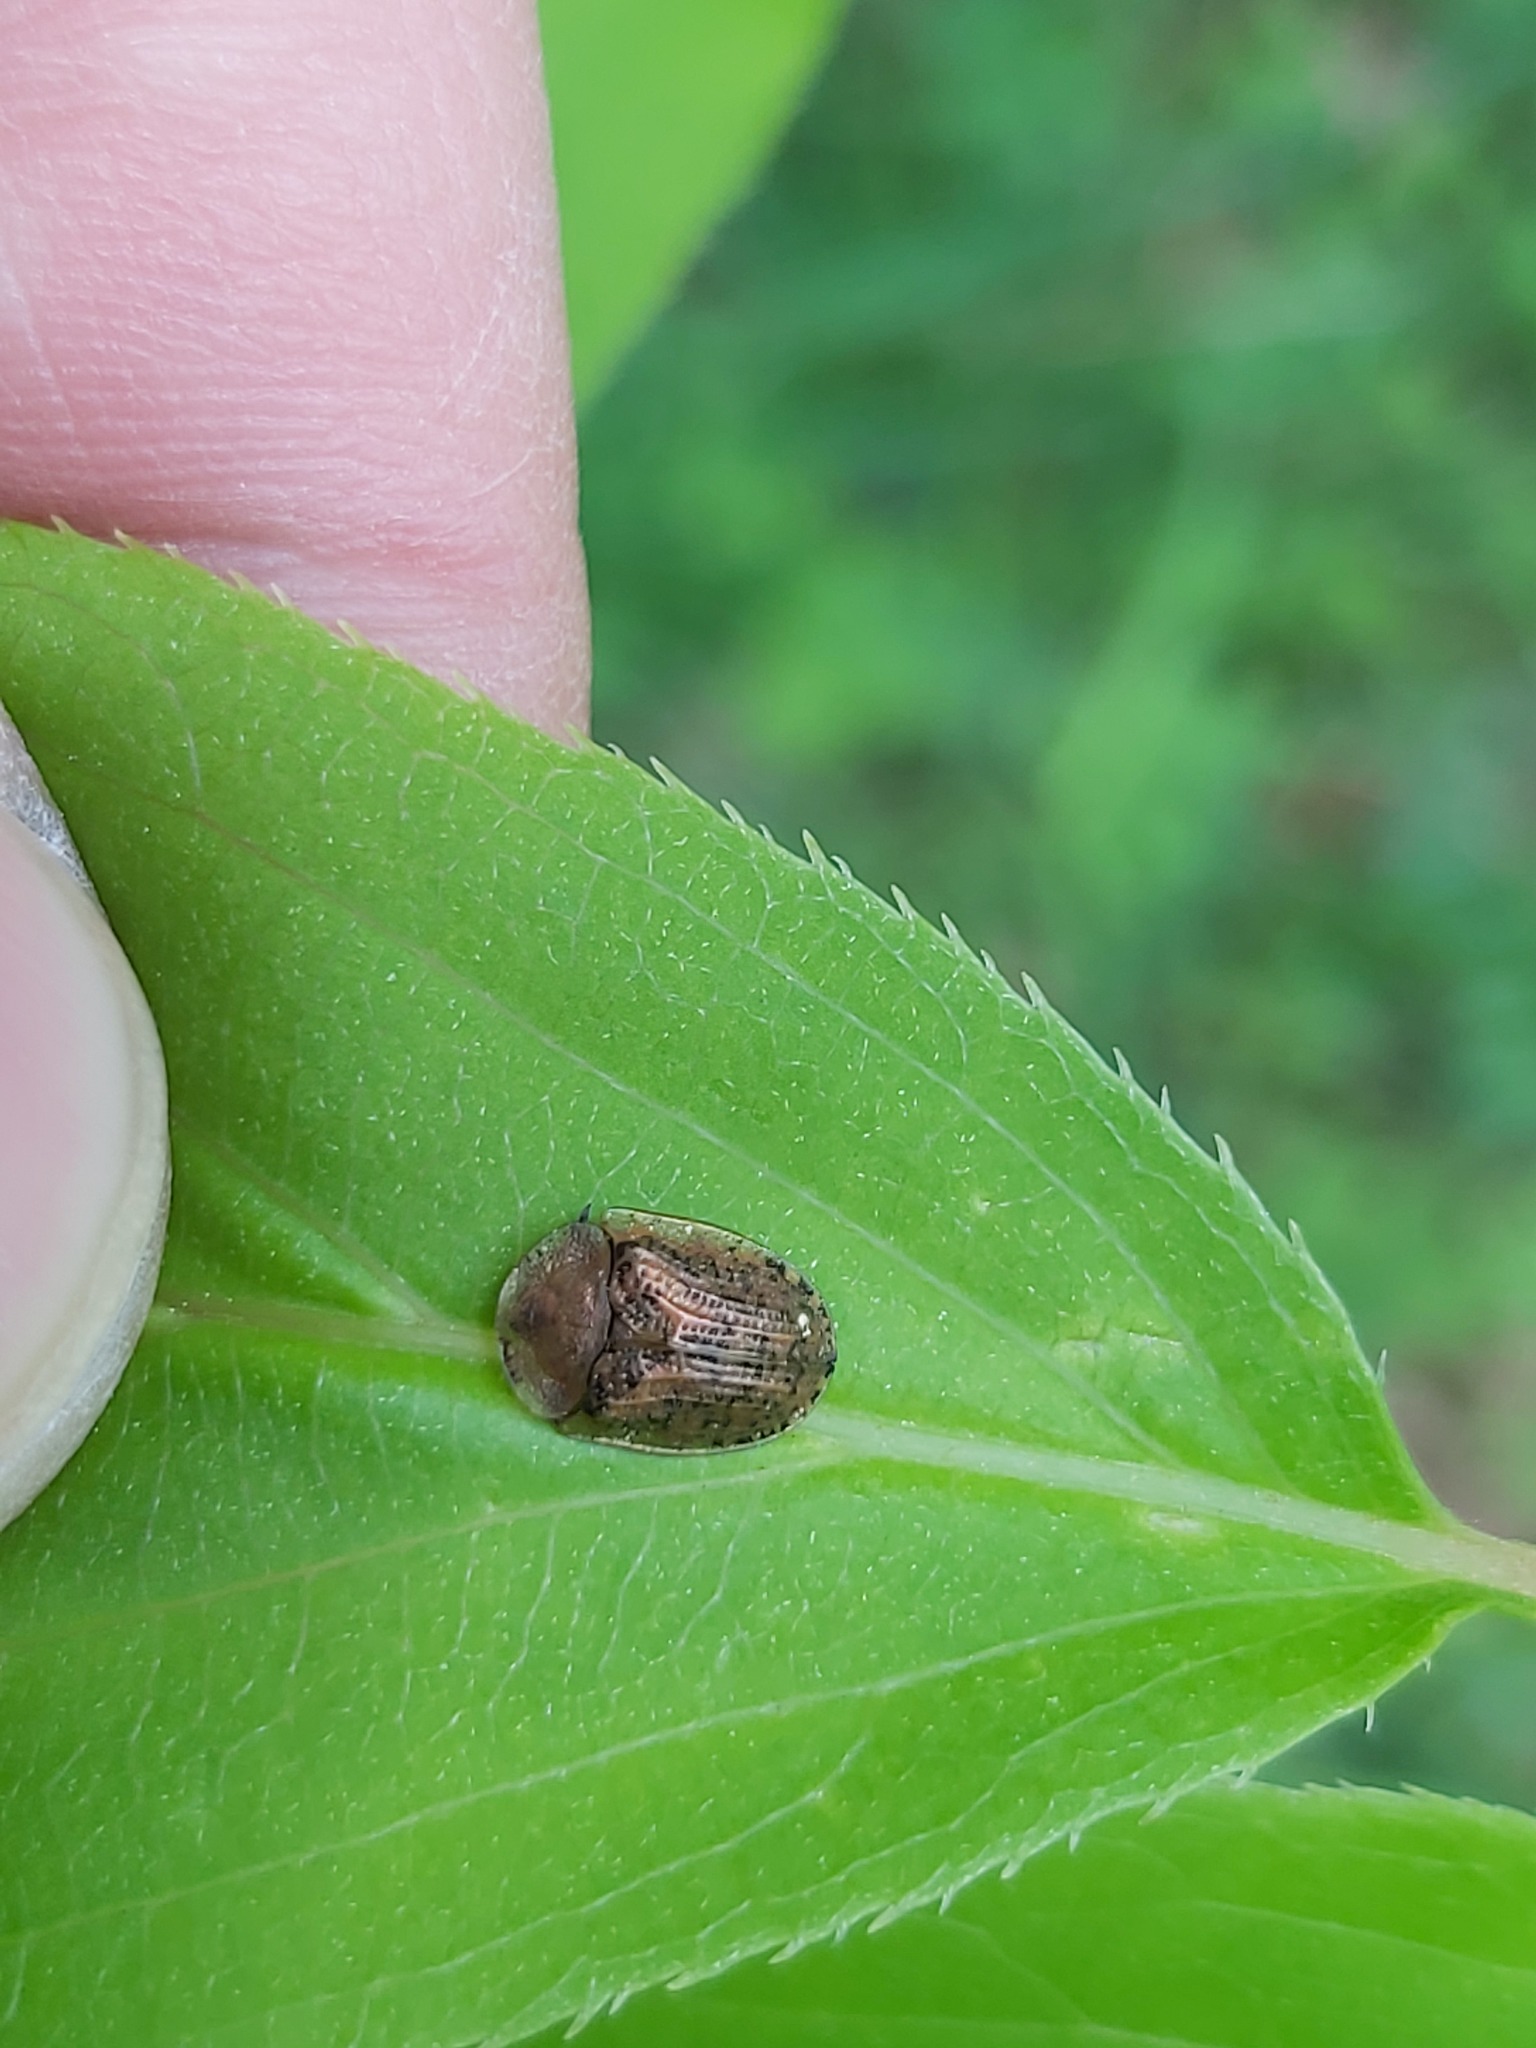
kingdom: Animalia
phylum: Arthropoda
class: Insecta
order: Coleoptera
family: Chrysomelidae
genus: Cassida
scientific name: Cassida nebulosa
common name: Beet tortoise beetle
